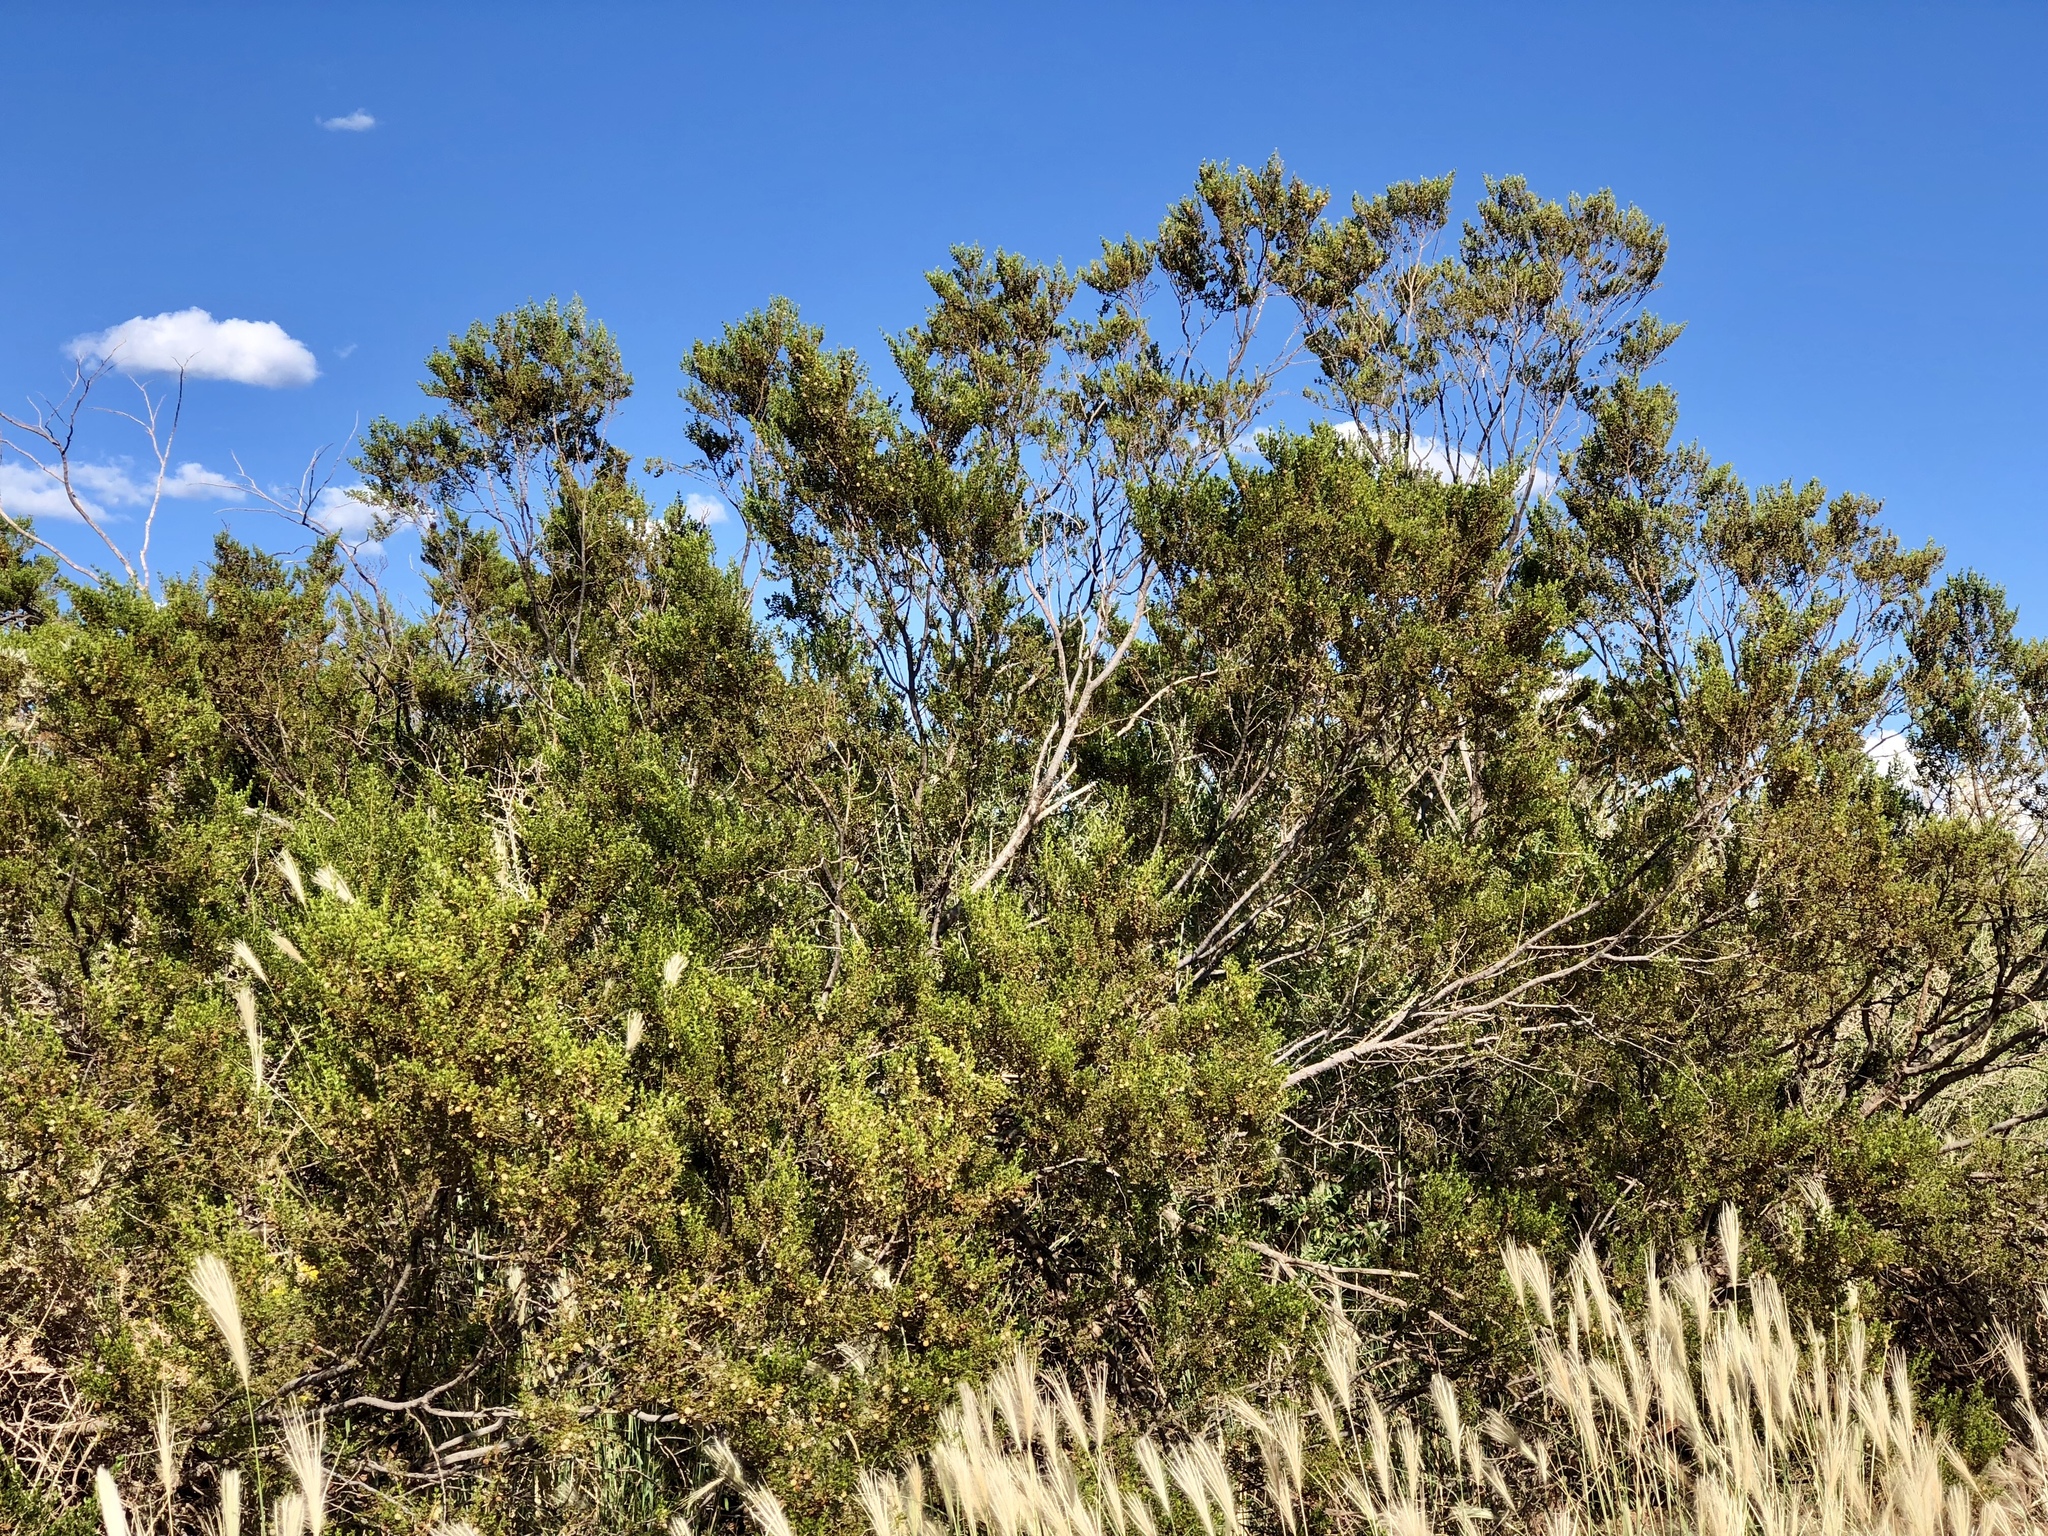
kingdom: Plantae
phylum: Tracheophyta
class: Magnoliopsida
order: Zygophyllales
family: Zygophyllaceae
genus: Larrea
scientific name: Larrea tridentata
